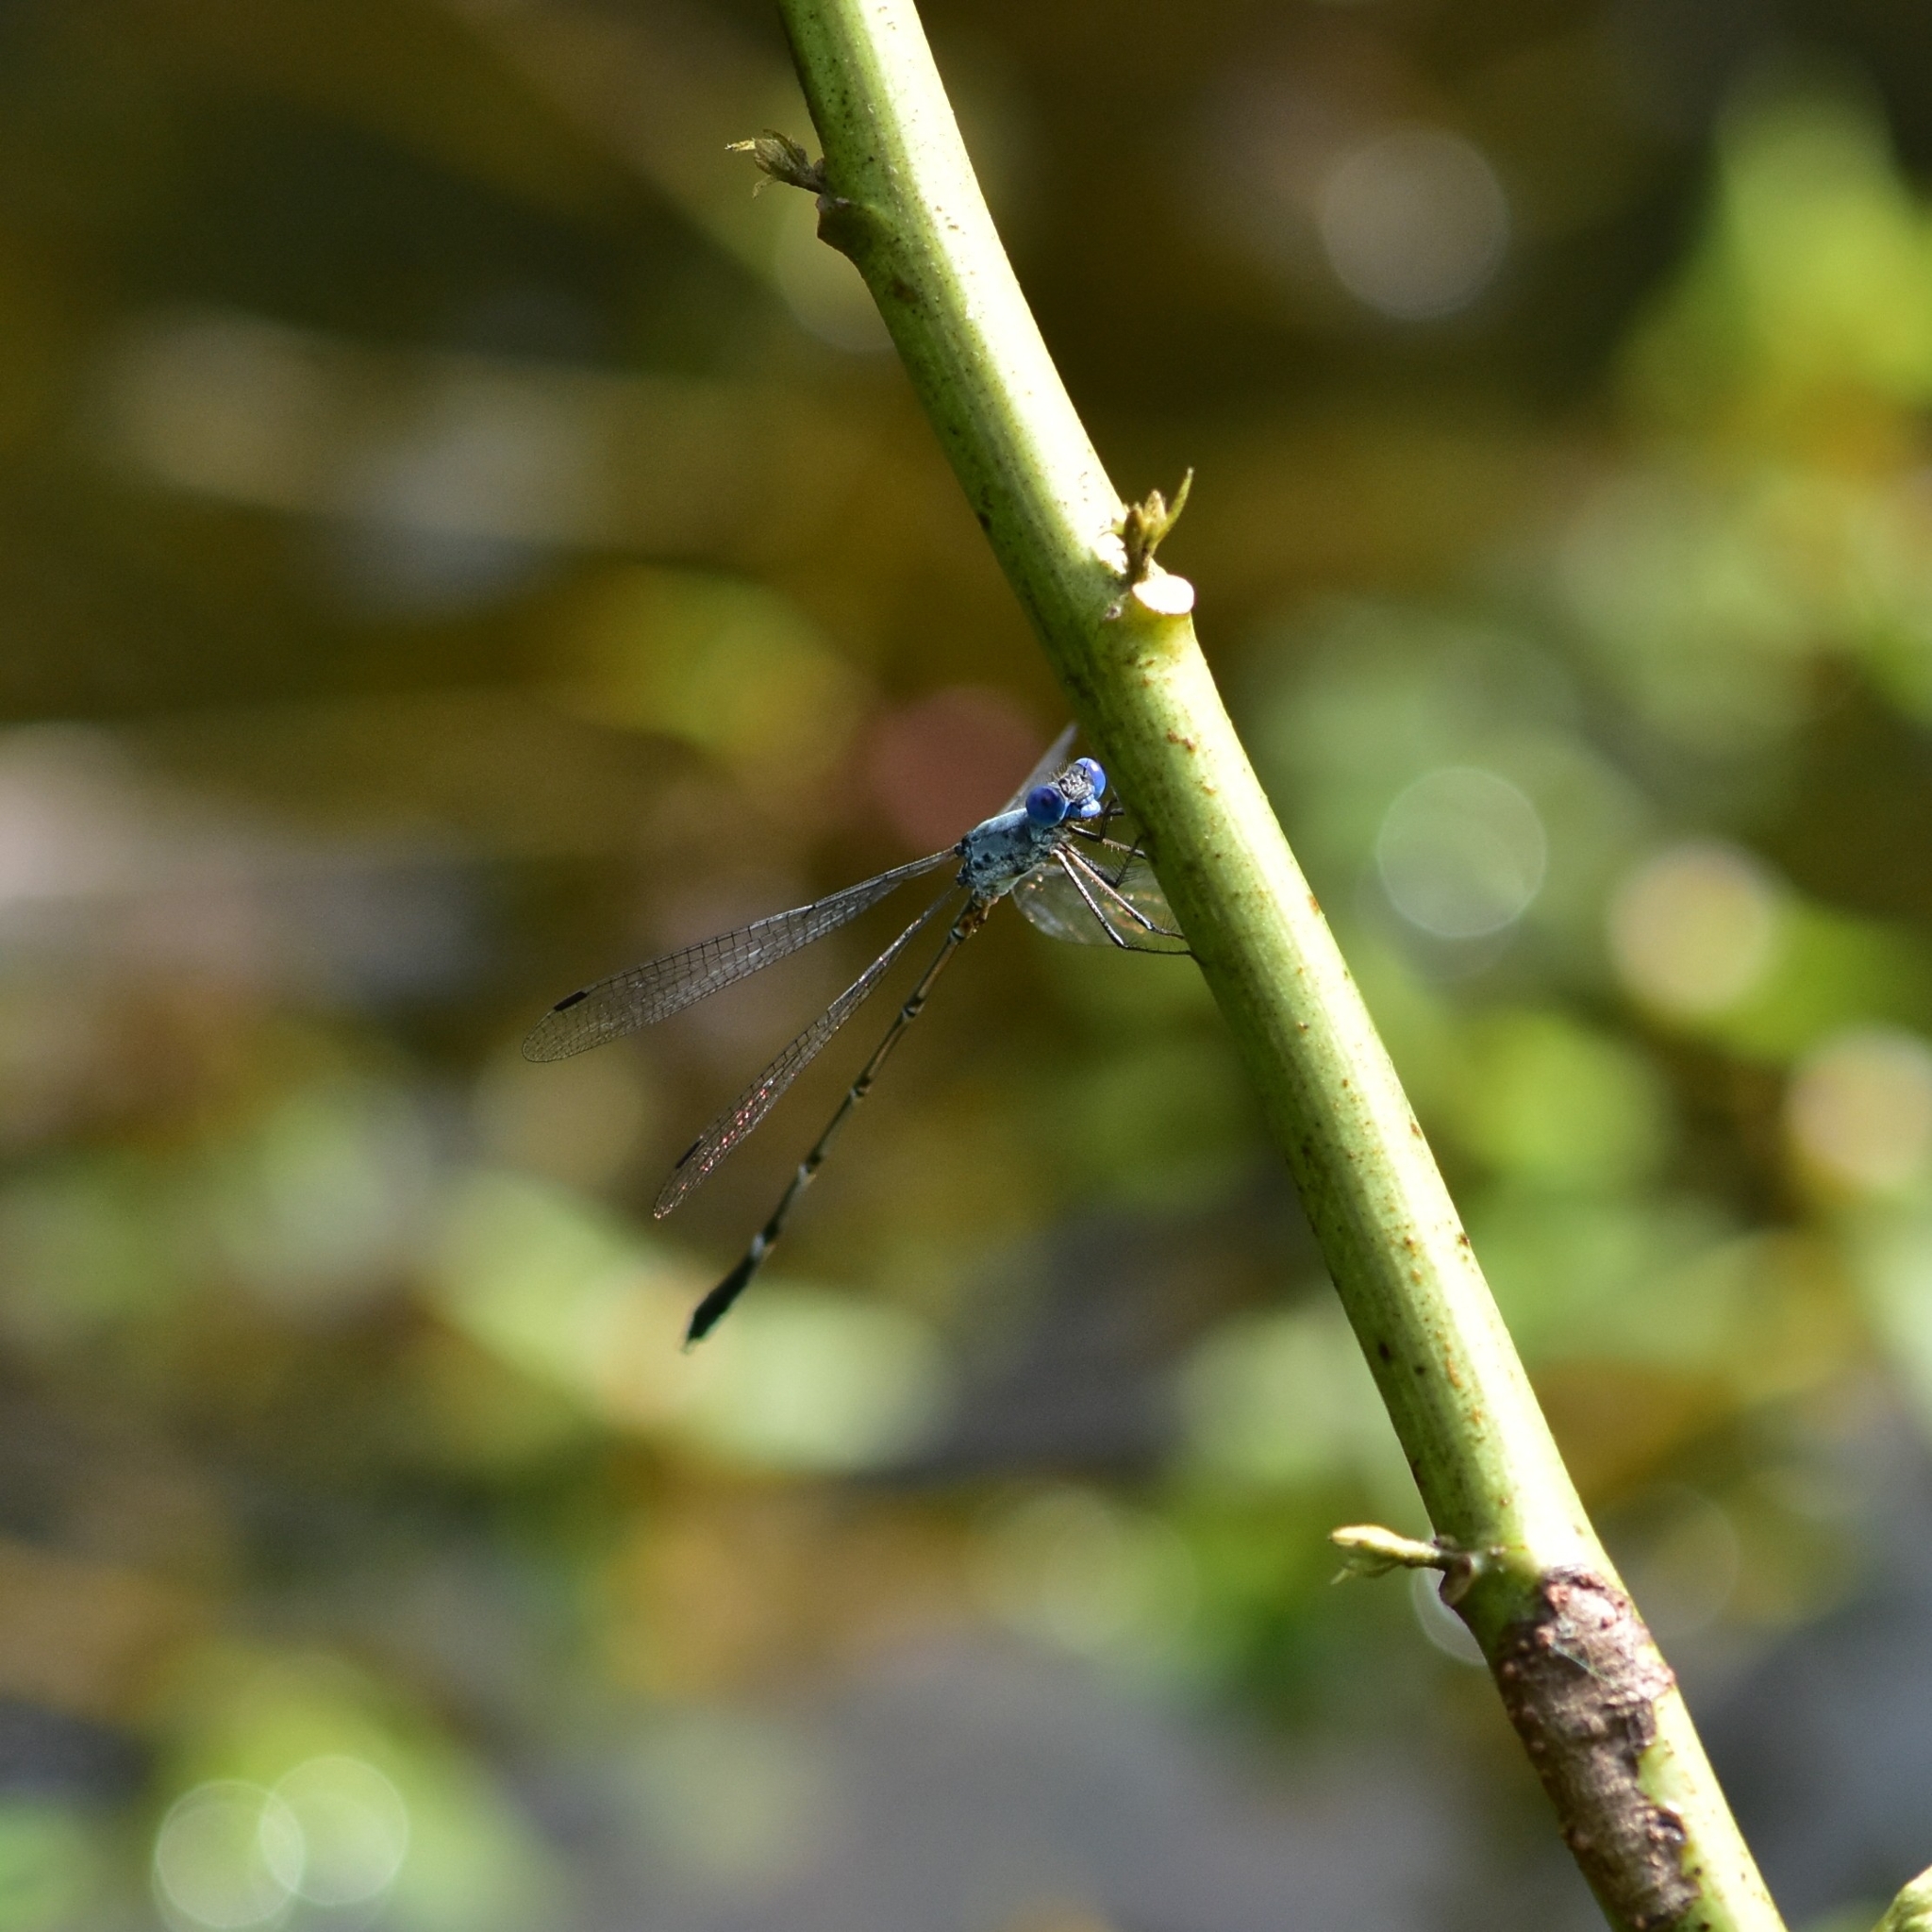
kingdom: Animalia
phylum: Arthropoda
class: Insecta
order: Odonata
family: Lestidae
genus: Lestes
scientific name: Lestes dorothea
